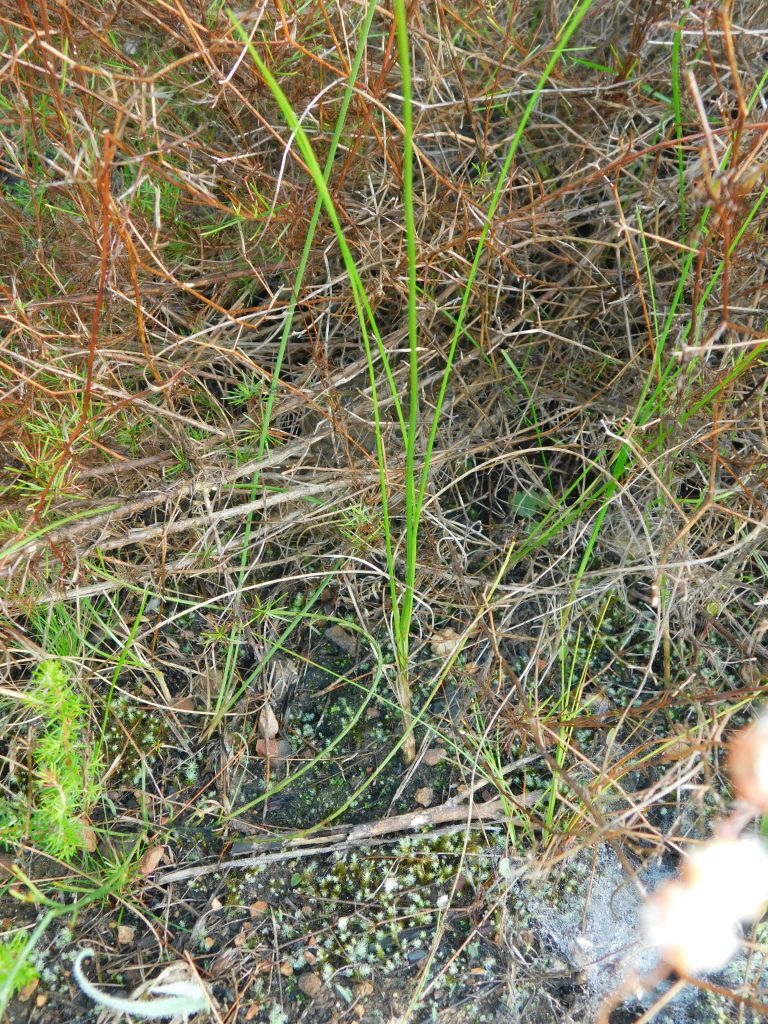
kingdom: Plantae
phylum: Tracheophyta
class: Liliopsida
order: Asparagales
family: Asphodelaceae
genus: Bulbinella
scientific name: Bulbinella trinervis
